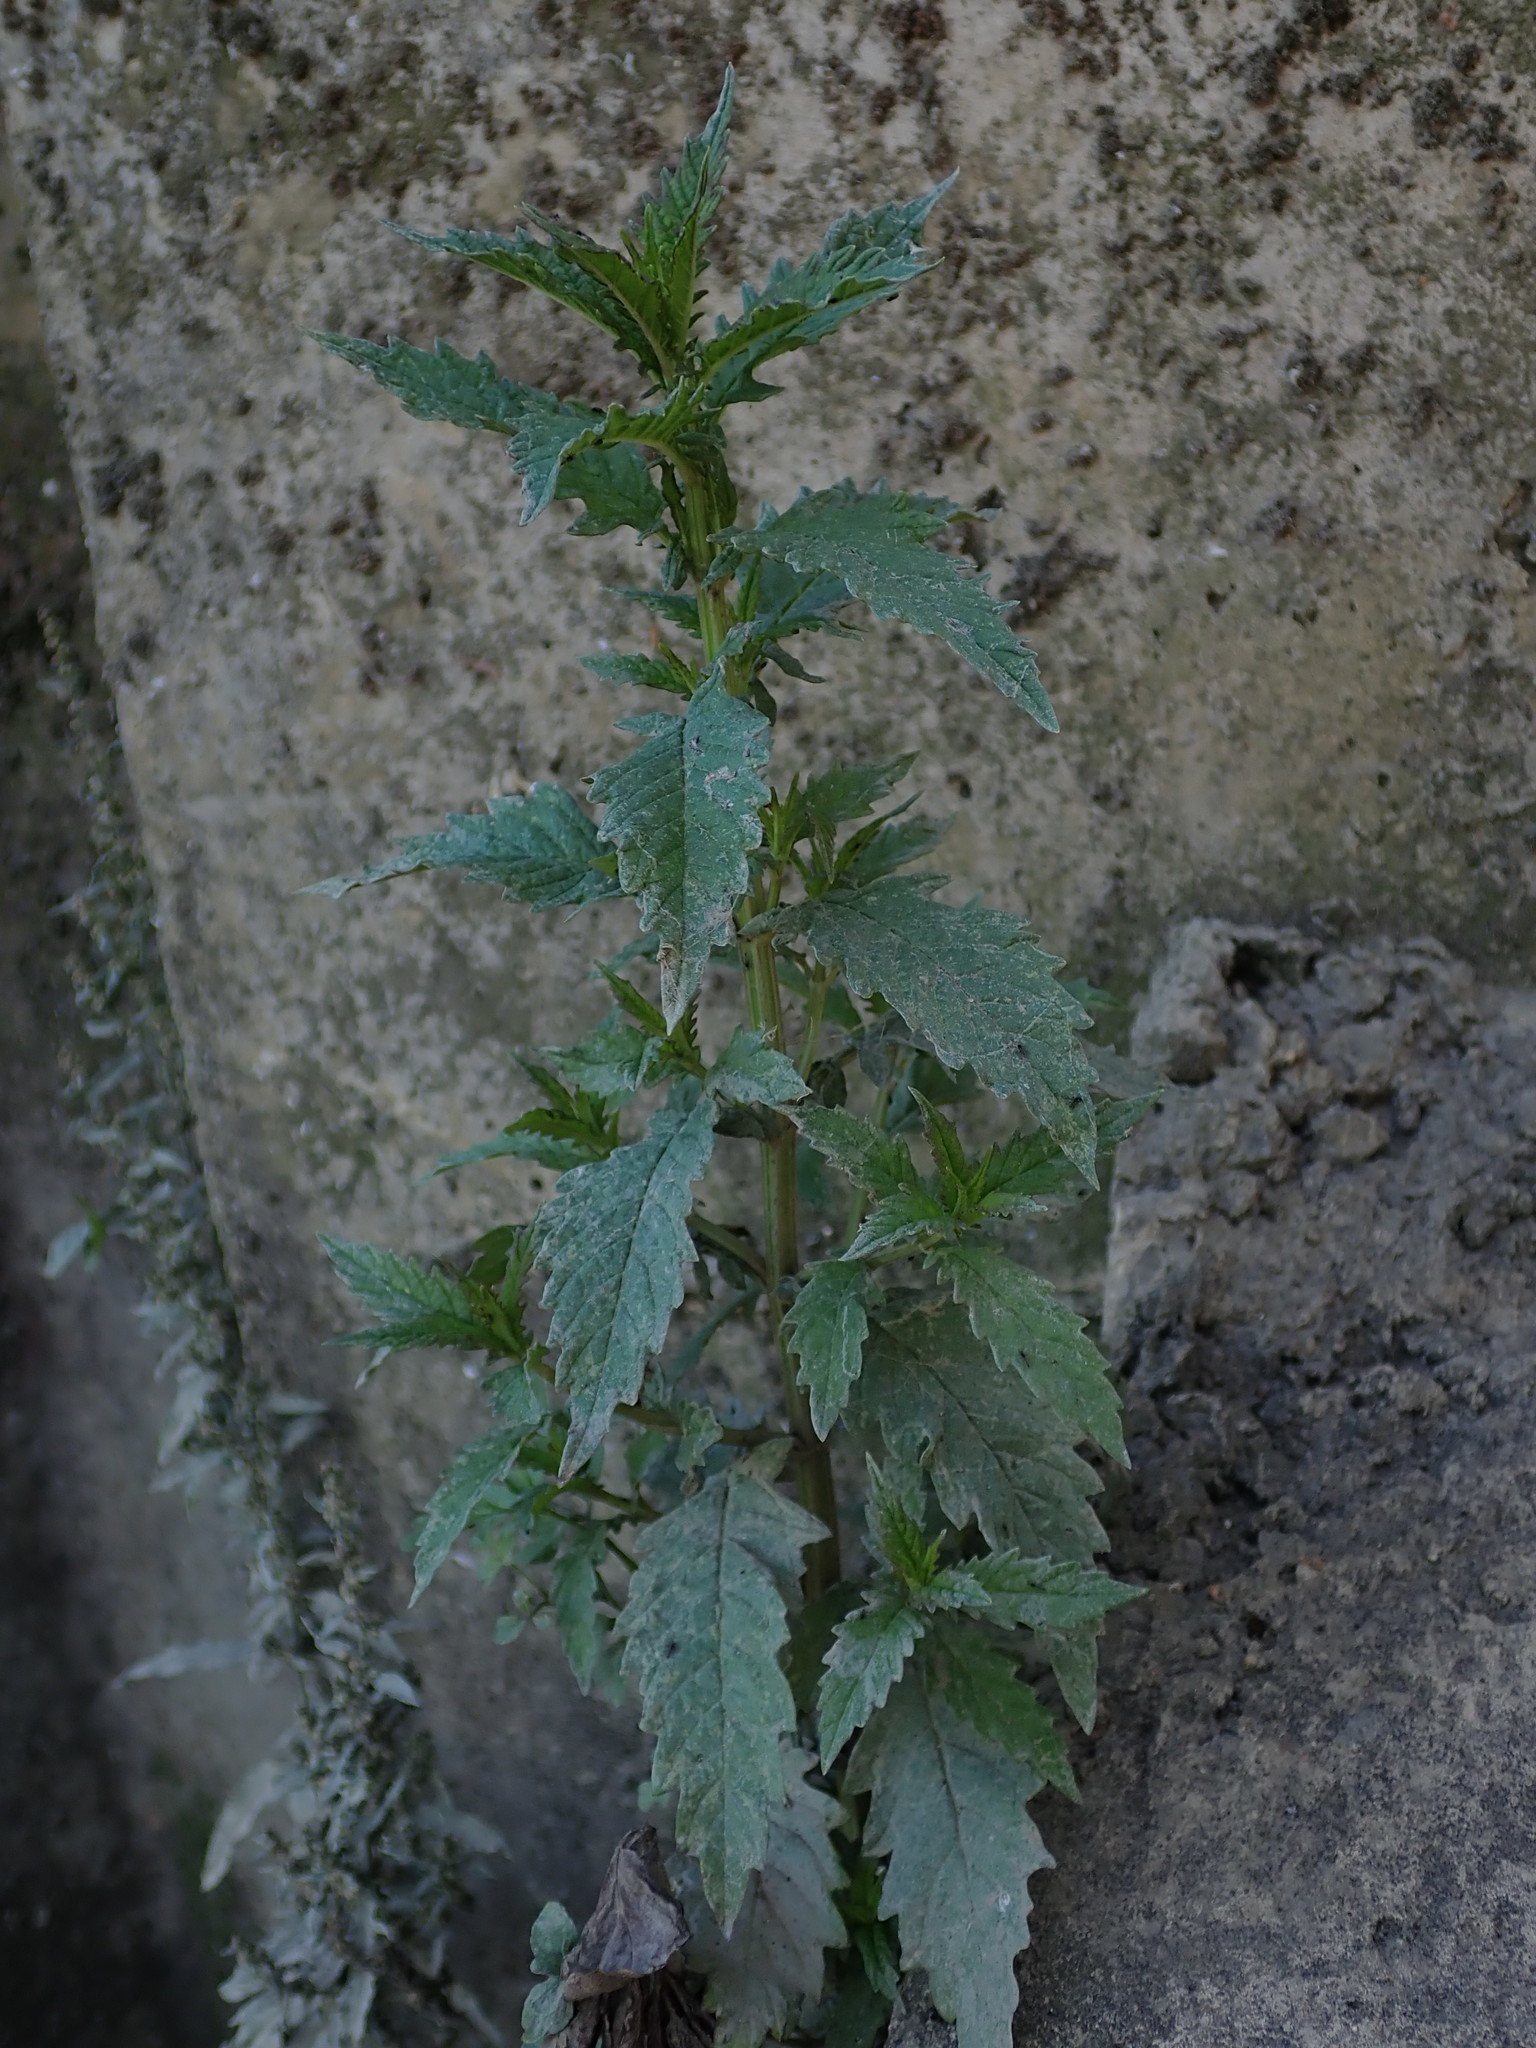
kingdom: Plantae
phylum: Tracheophyta
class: Magnoliopsida
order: Lamiales
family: Lamiaceae
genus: Lycopus
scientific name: Lycopus europaeus
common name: European bugleweed
